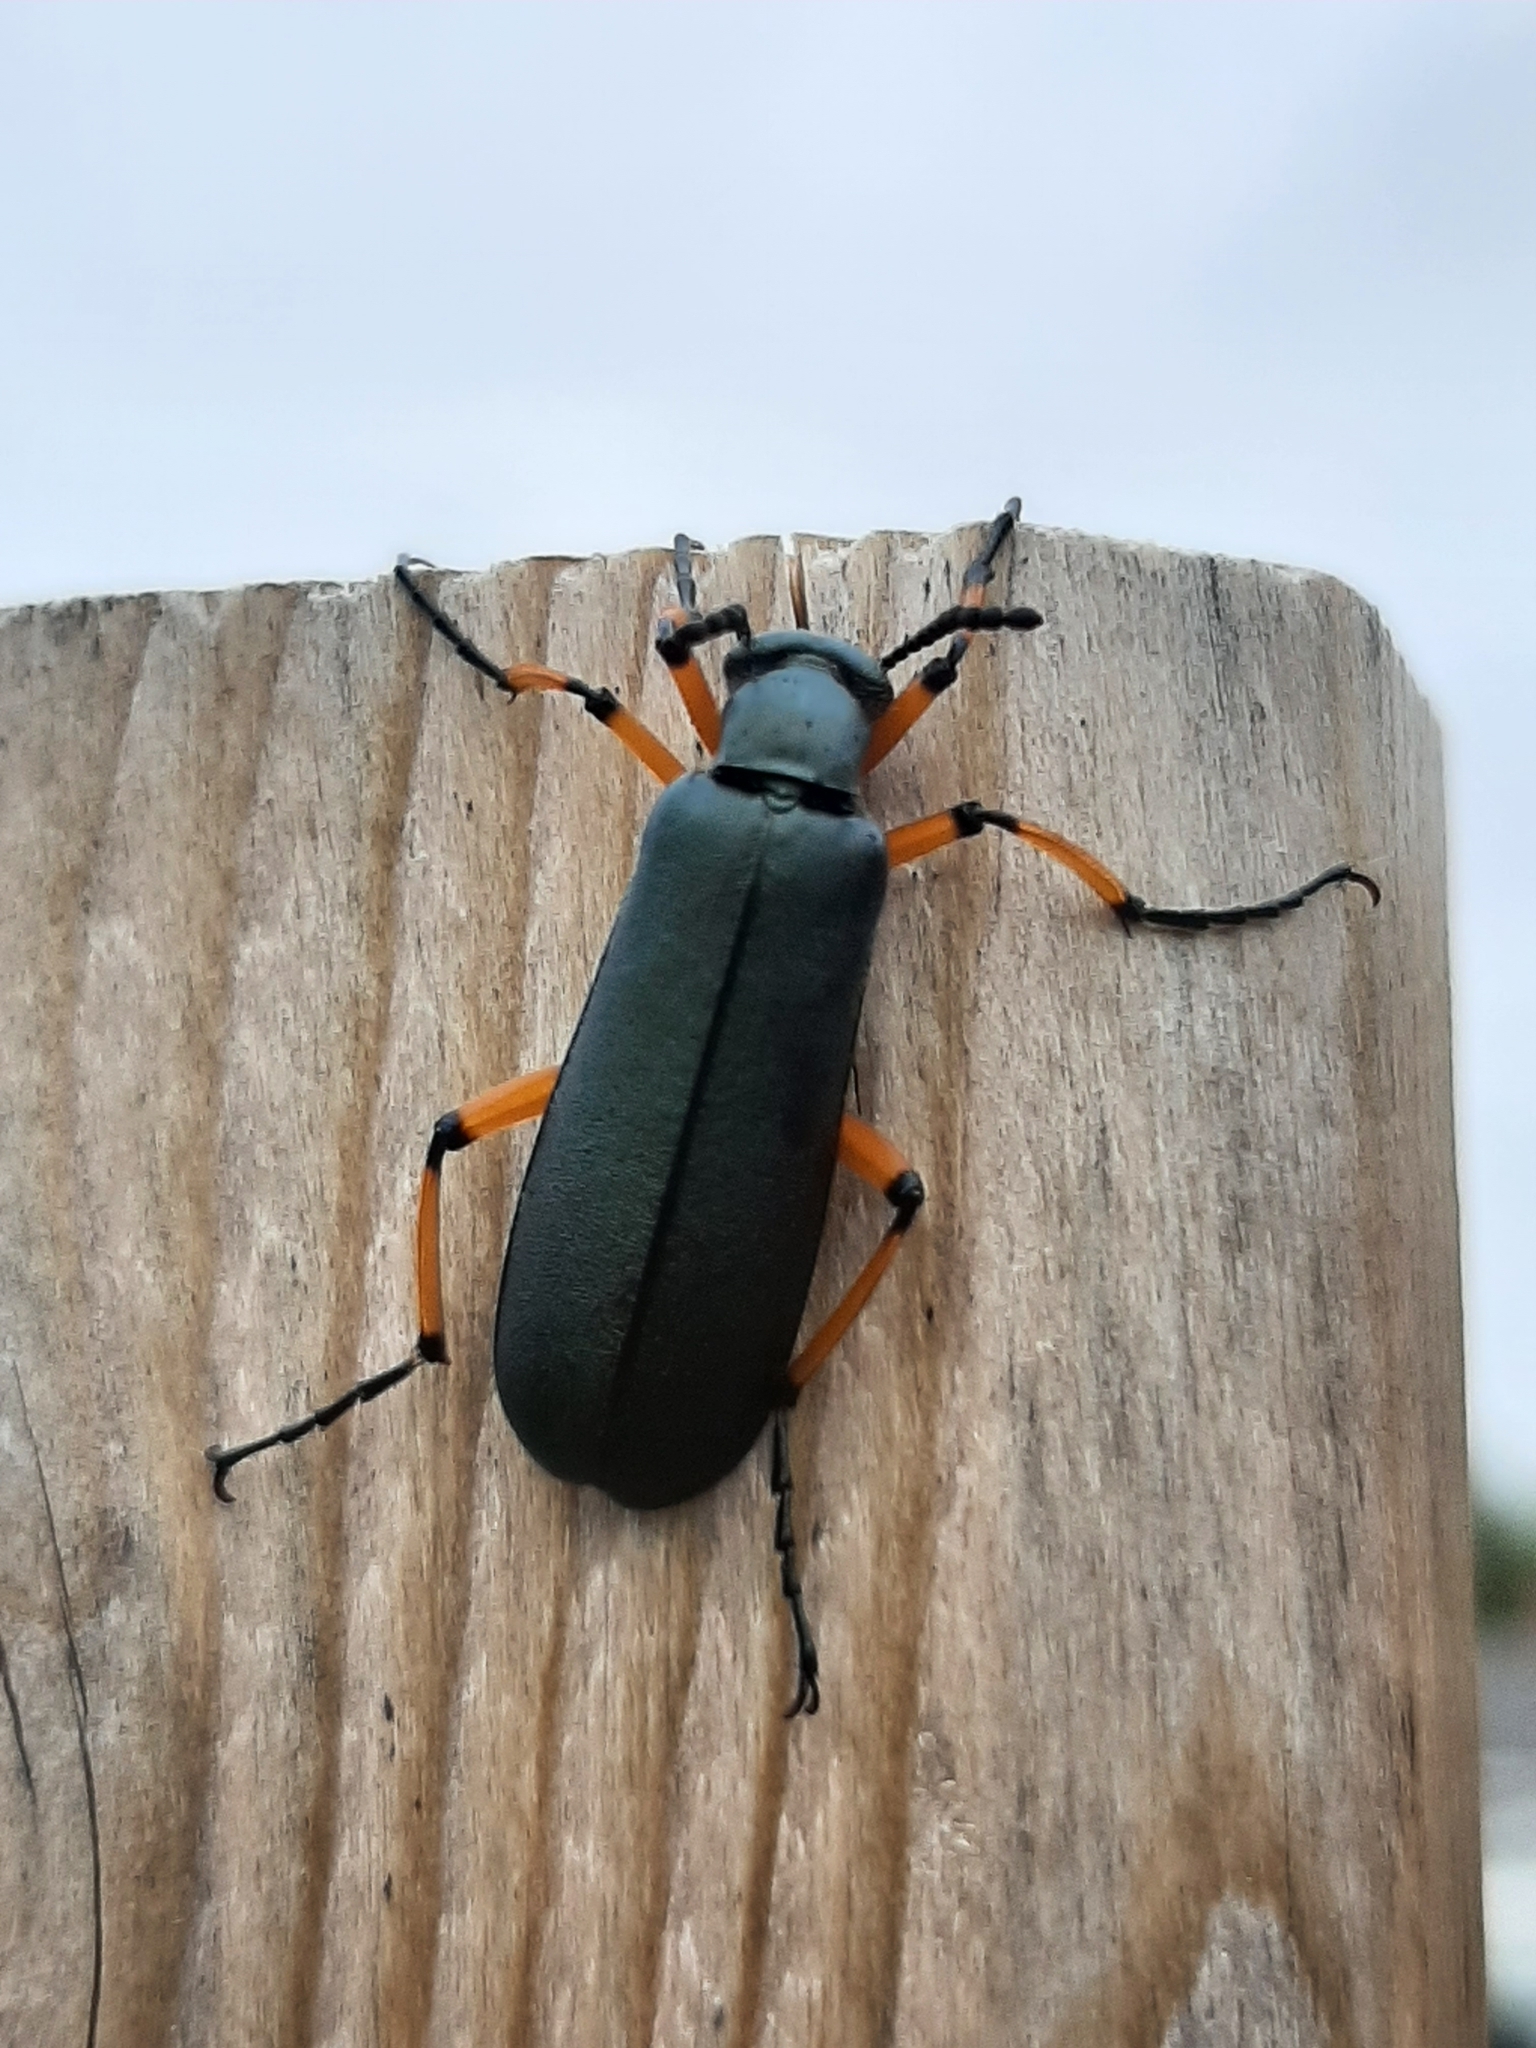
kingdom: Animalia
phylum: Arthropoda
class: Insecta
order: Coleoptera
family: Meloidae
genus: Lytta
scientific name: Lytta sayi
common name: Say's blister beetle
